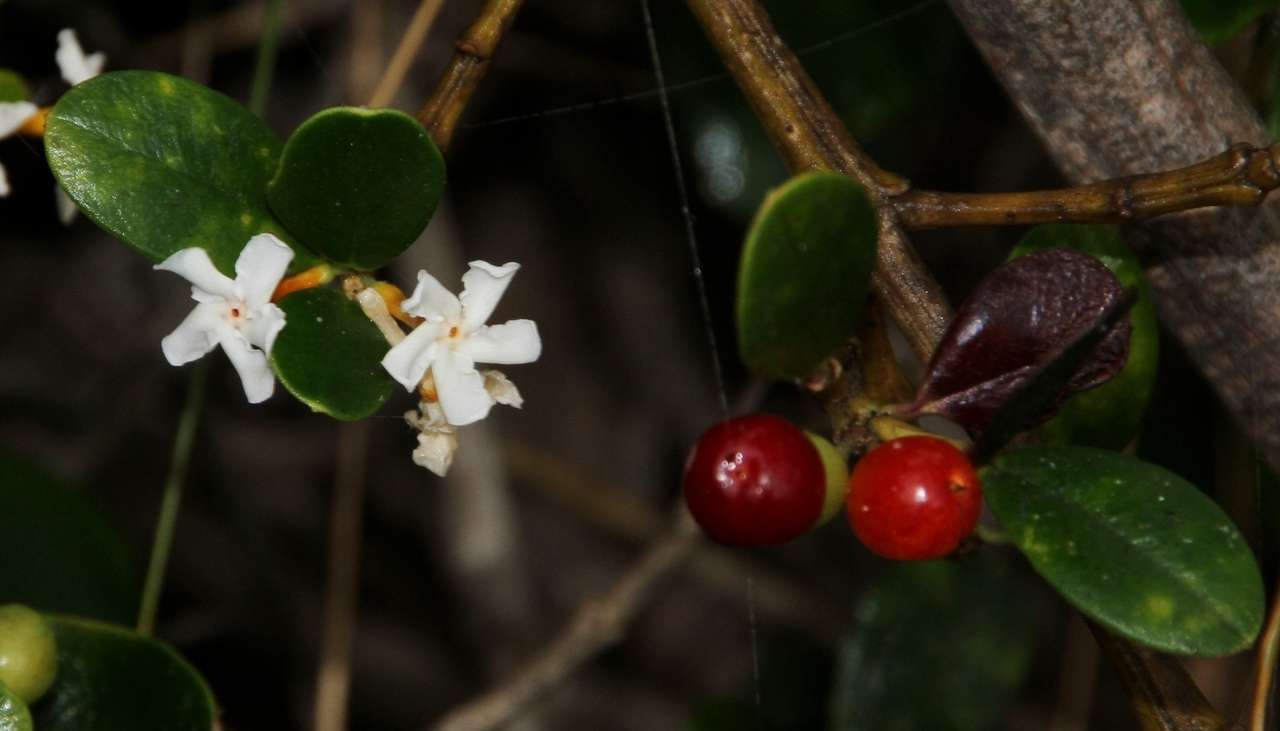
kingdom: Plantae
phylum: Tracheophyta
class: Magnoliopsida
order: Gentianales
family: Apocynaceae
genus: Alyxia
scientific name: Alyxia buxifolia
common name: Dysentery-bush
